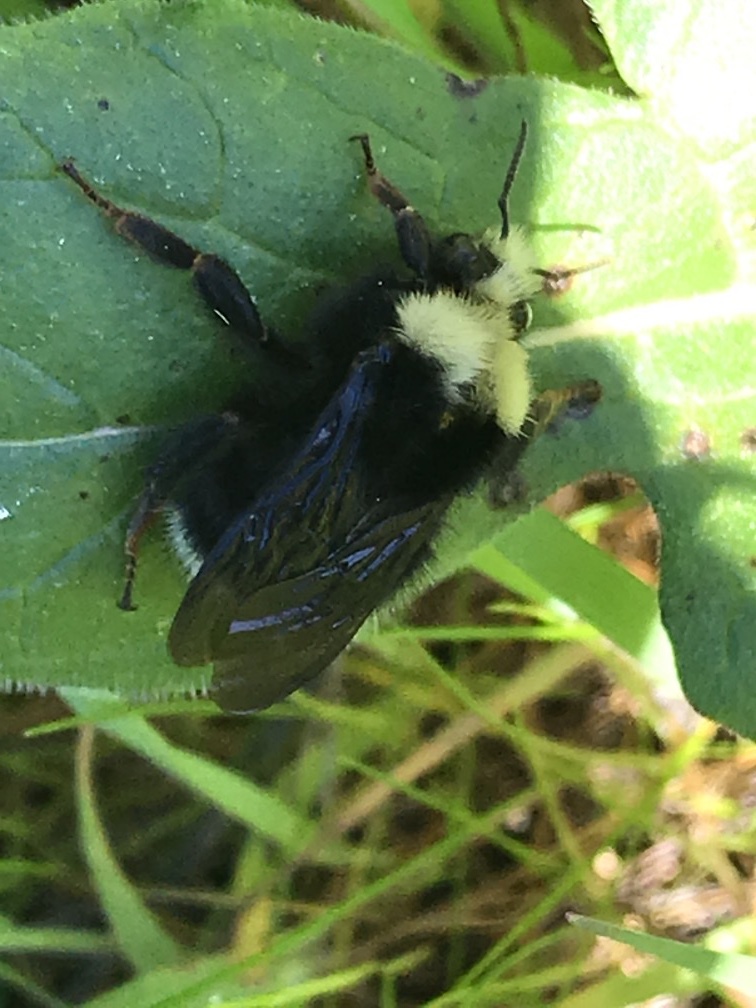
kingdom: Animalia
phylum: Arthropoda
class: Insecta
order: Hymenoptera
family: Apidae
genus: Pyrobombus
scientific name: Pyrobombus
